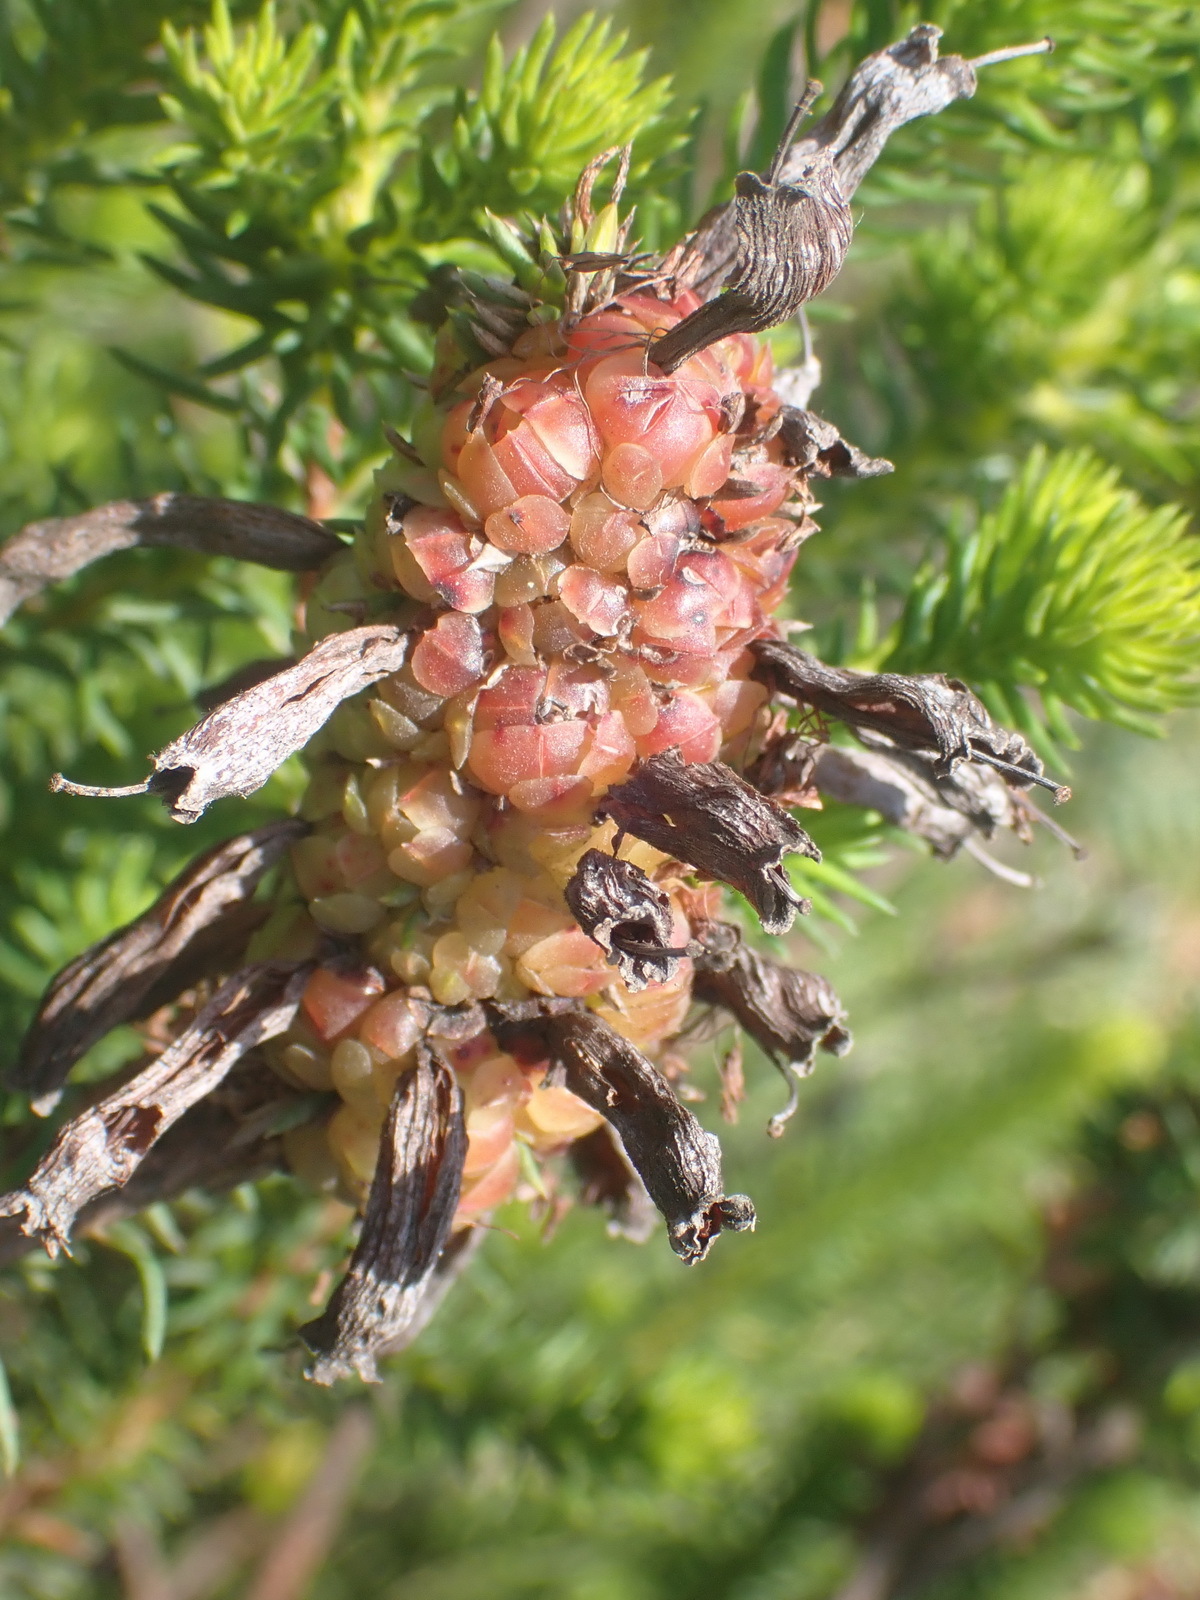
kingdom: Plantae
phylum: Tracheophyta
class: Magnoliopsida
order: Ericales
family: Ericaceae
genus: Erica
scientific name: Erica sessiliflora
